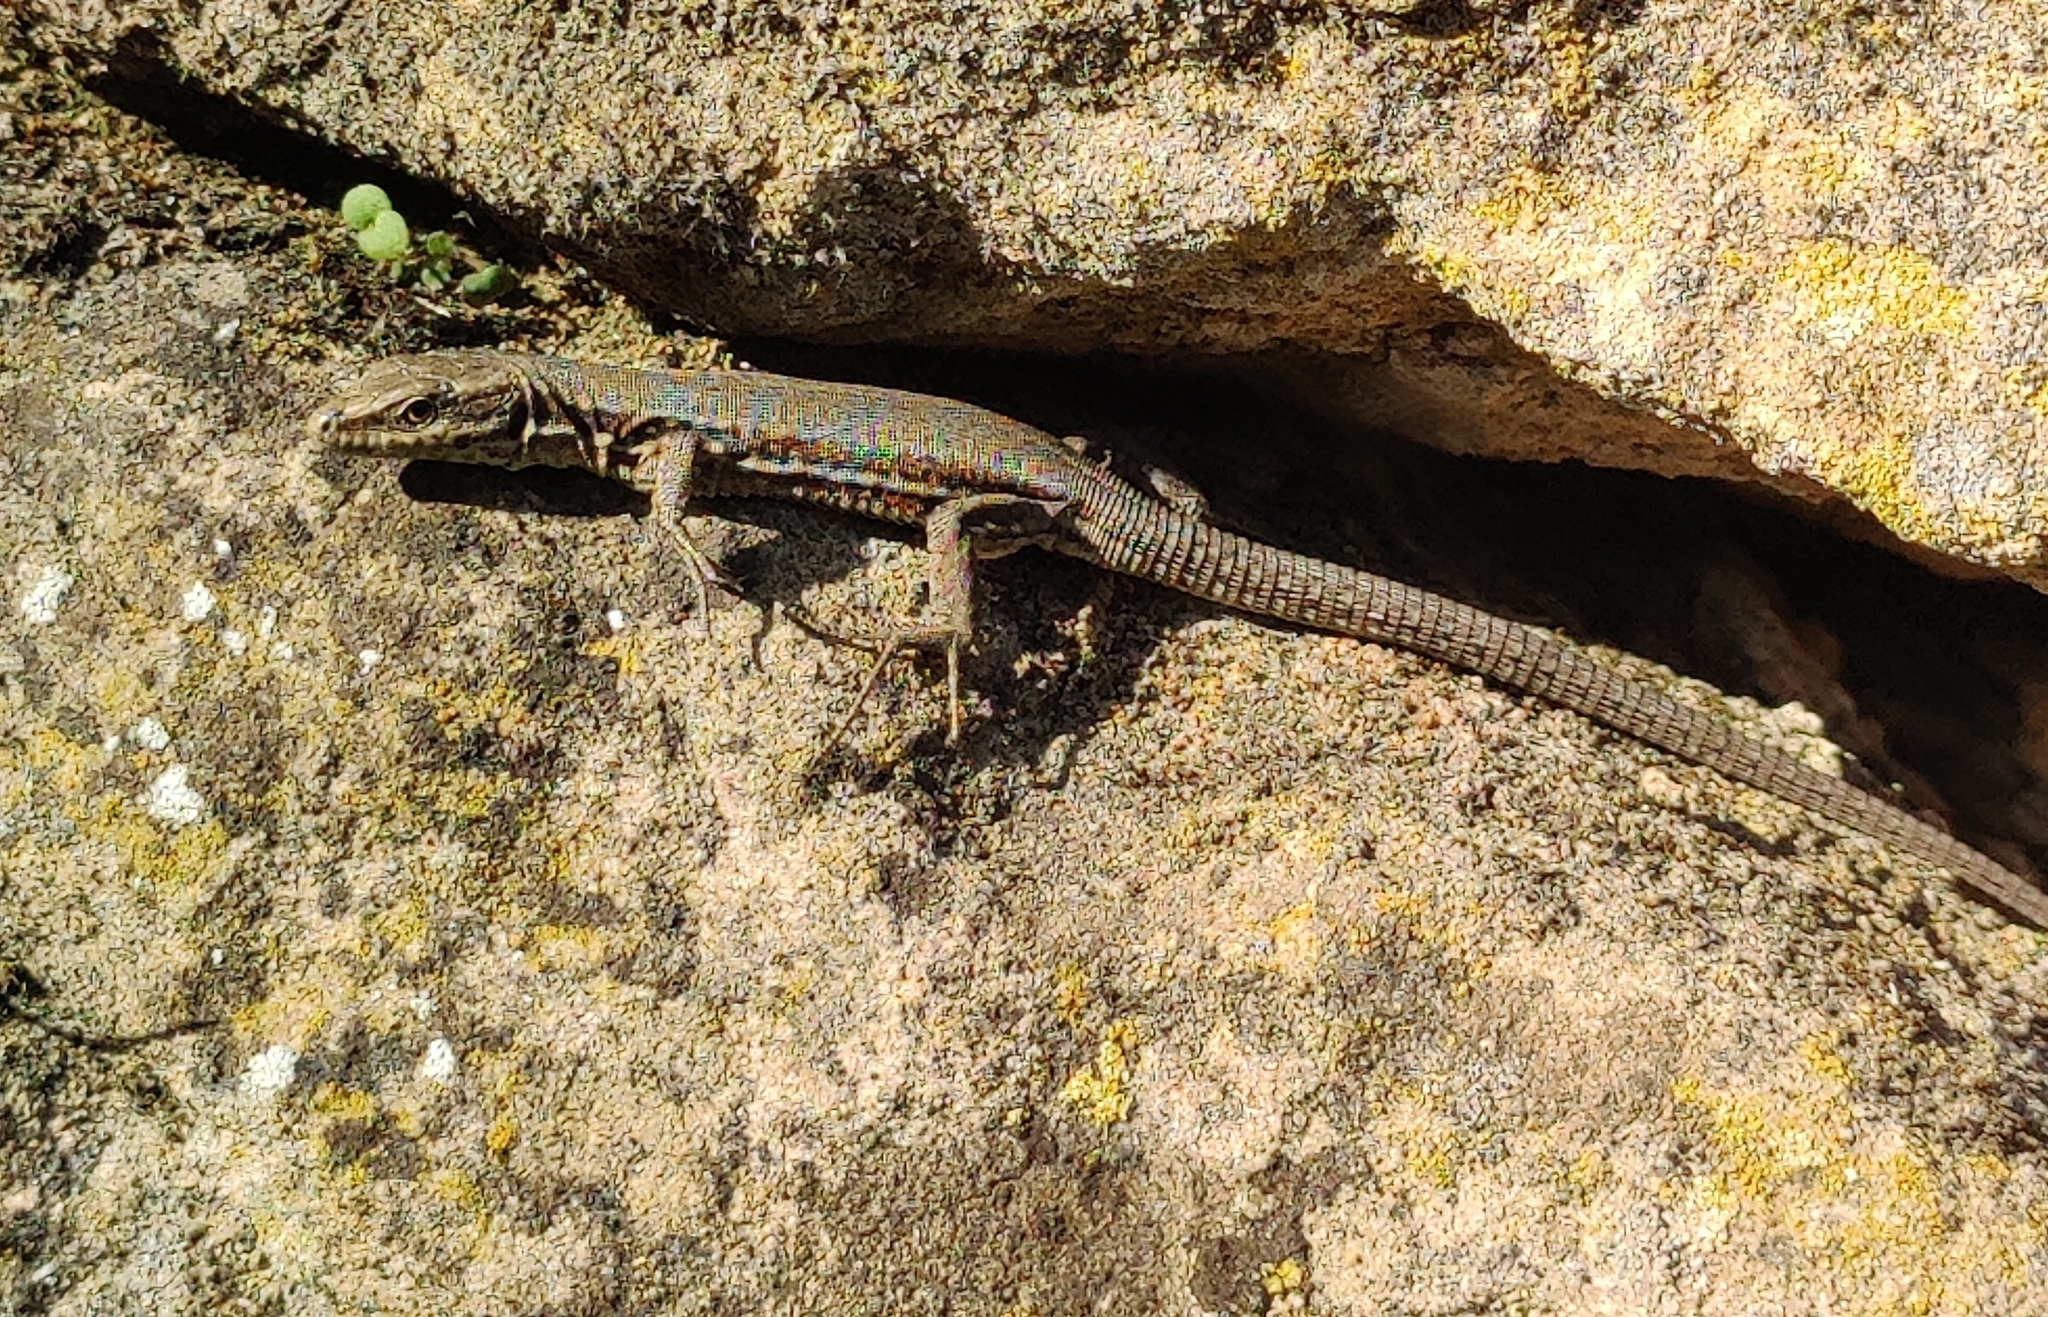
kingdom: Animalia
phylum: Chordata
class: Squamata
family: Lacertidae
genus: Podarcis
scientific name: Podarcis muralis
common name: Common wall lizard
